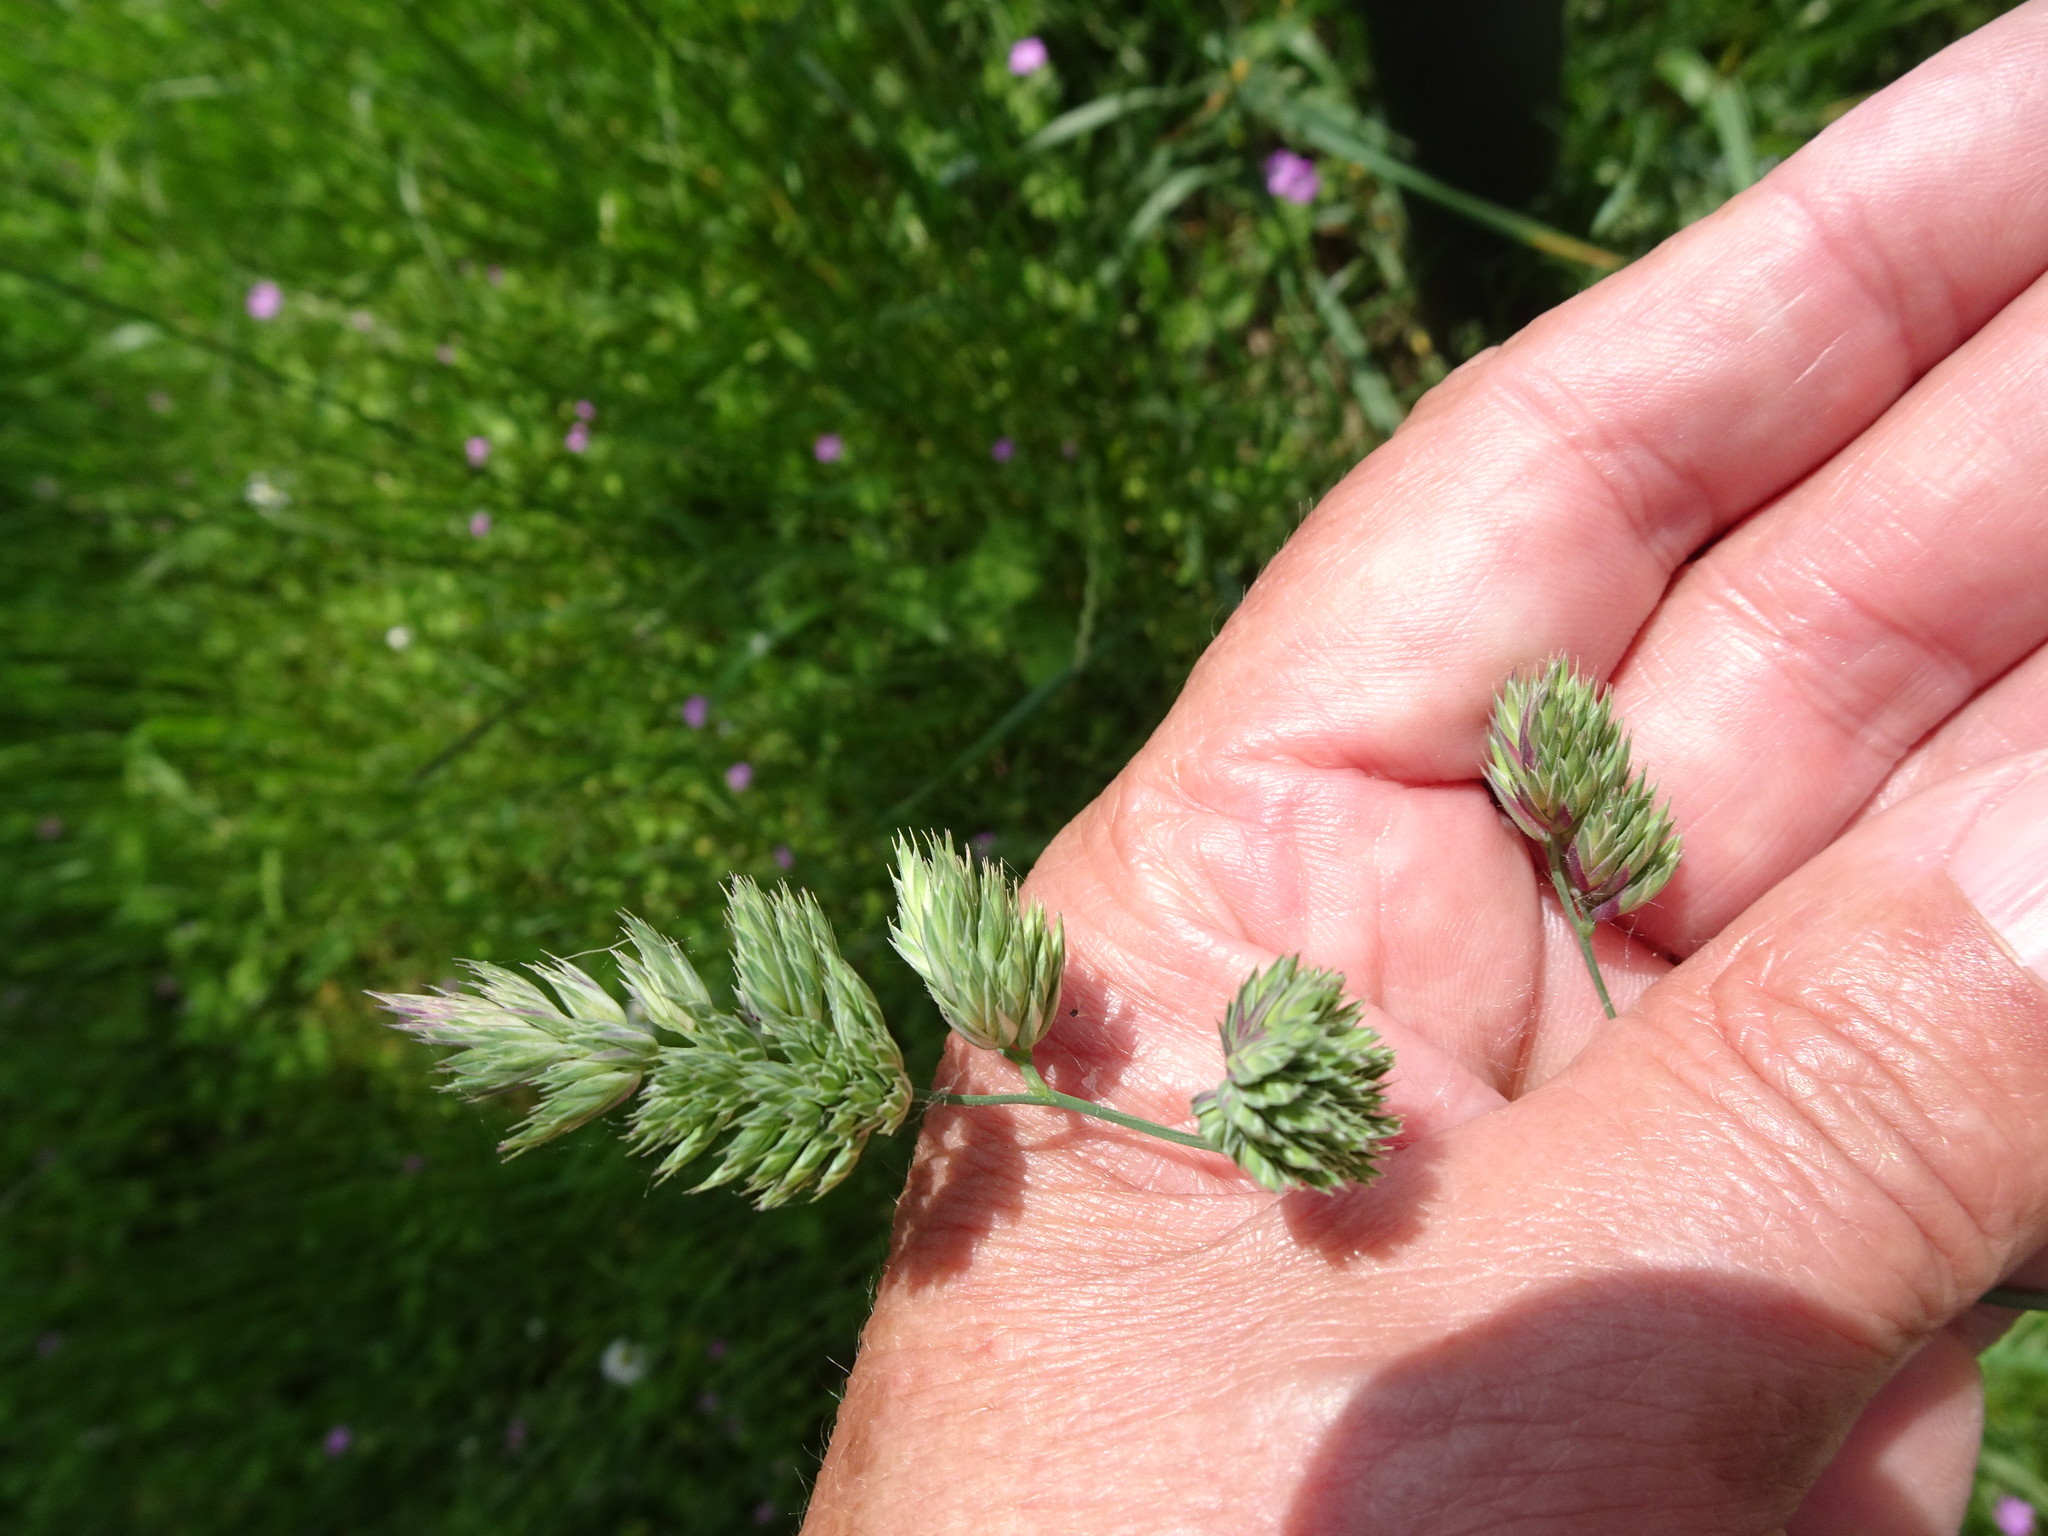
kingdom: Plantae
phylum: Tracheophyta
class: Liliopsida
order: Poales
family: Poaceae
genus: Dactylis
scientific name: Dactylis glomerata
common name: Orchardgrass
